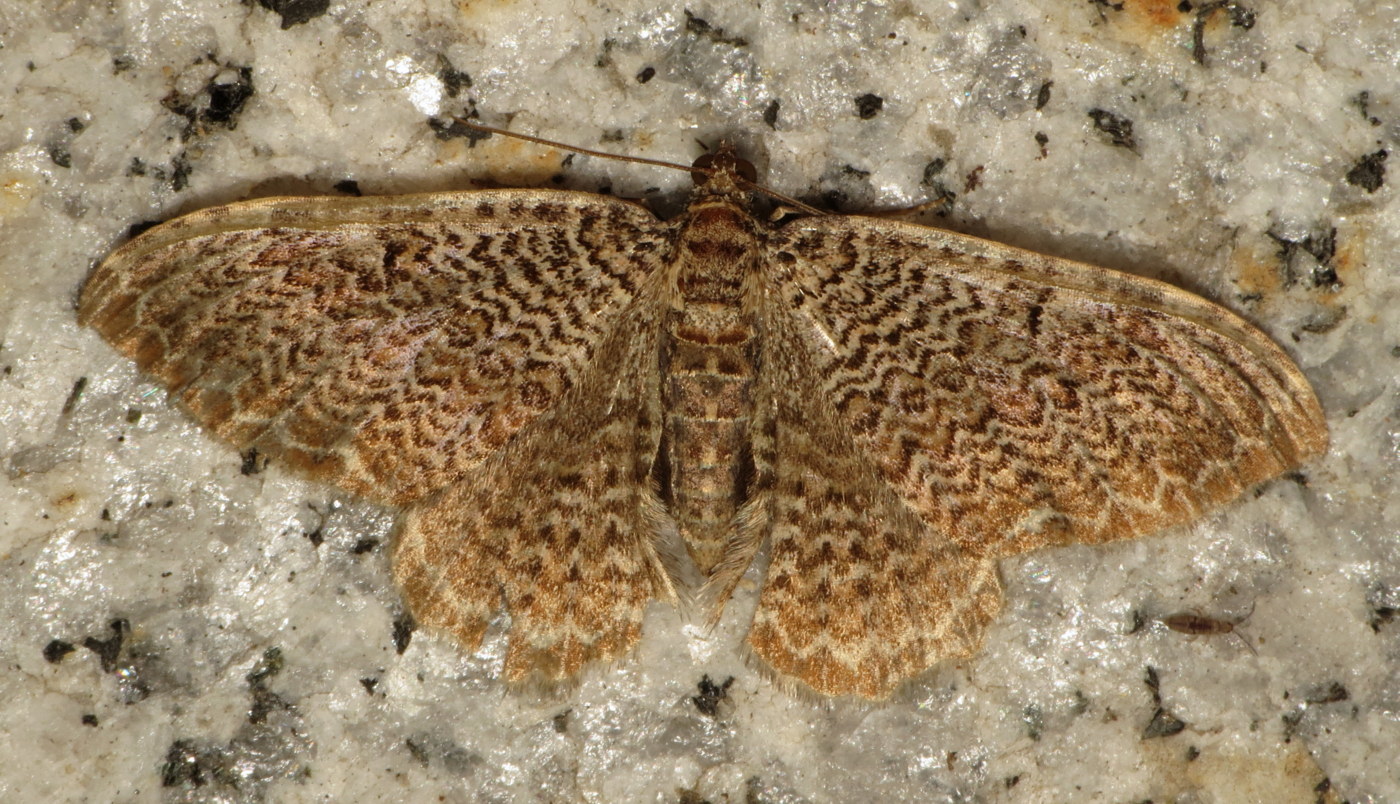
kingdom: Animalia
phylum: Arthropoda
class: Insecta
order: Lepidoptera
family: Geometridae
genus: Rheumaptera
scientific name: Rheumaptera prunivorata
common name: Cherry scallop shell moth
